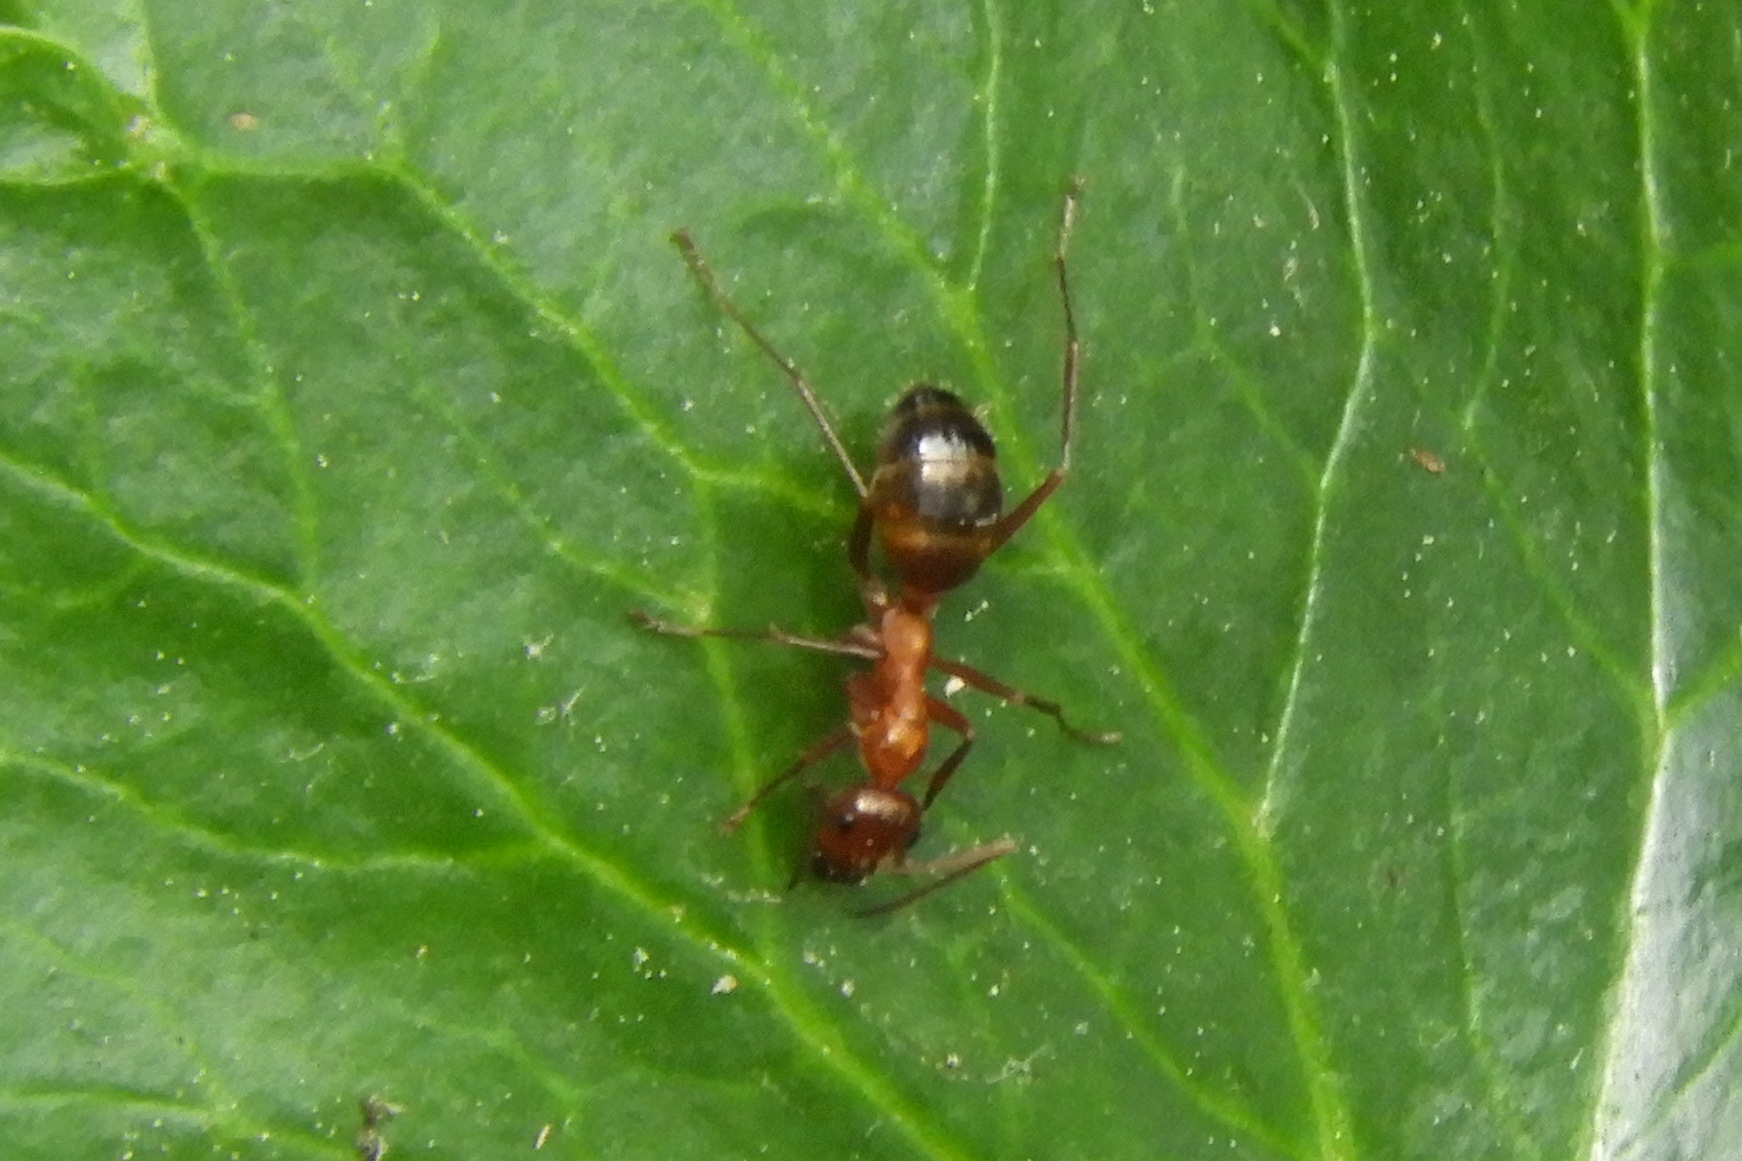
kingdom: Animalia
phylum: Arthropoda
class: Insecta
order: Hymenoptera
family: Formicidae
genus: Formica
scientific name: Formica
